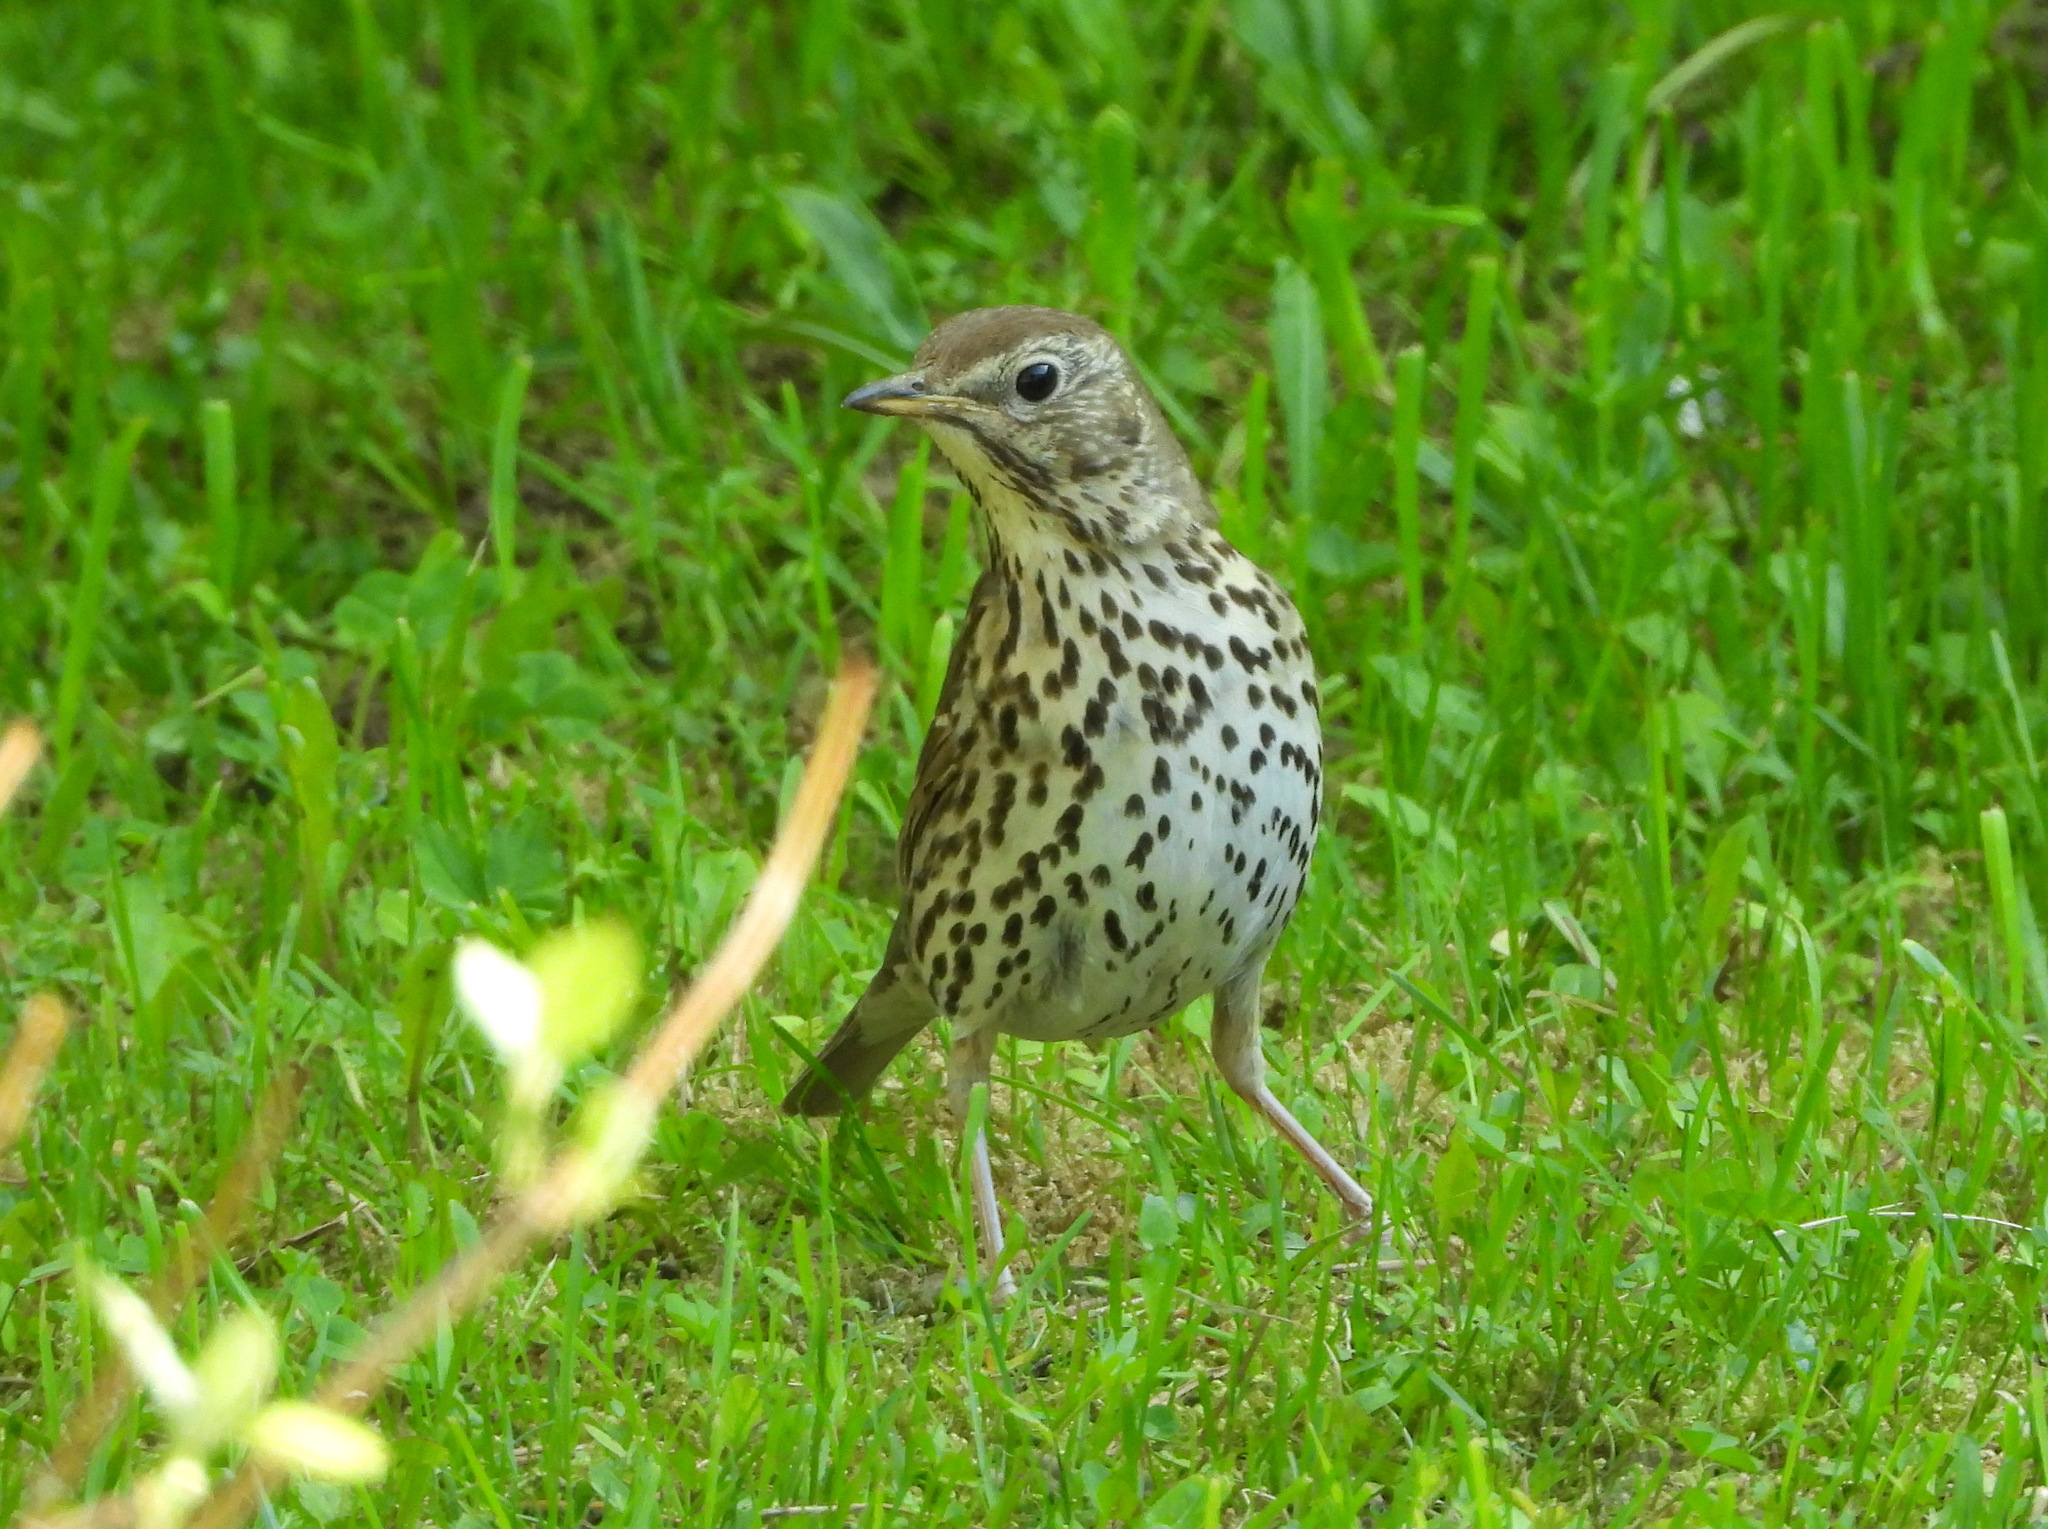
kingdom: Animalia
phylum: Chordata
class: Aves
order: Passeriformes
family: Turdidae
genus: Turdus
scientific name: Turdus philomelos
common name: Song thrush
